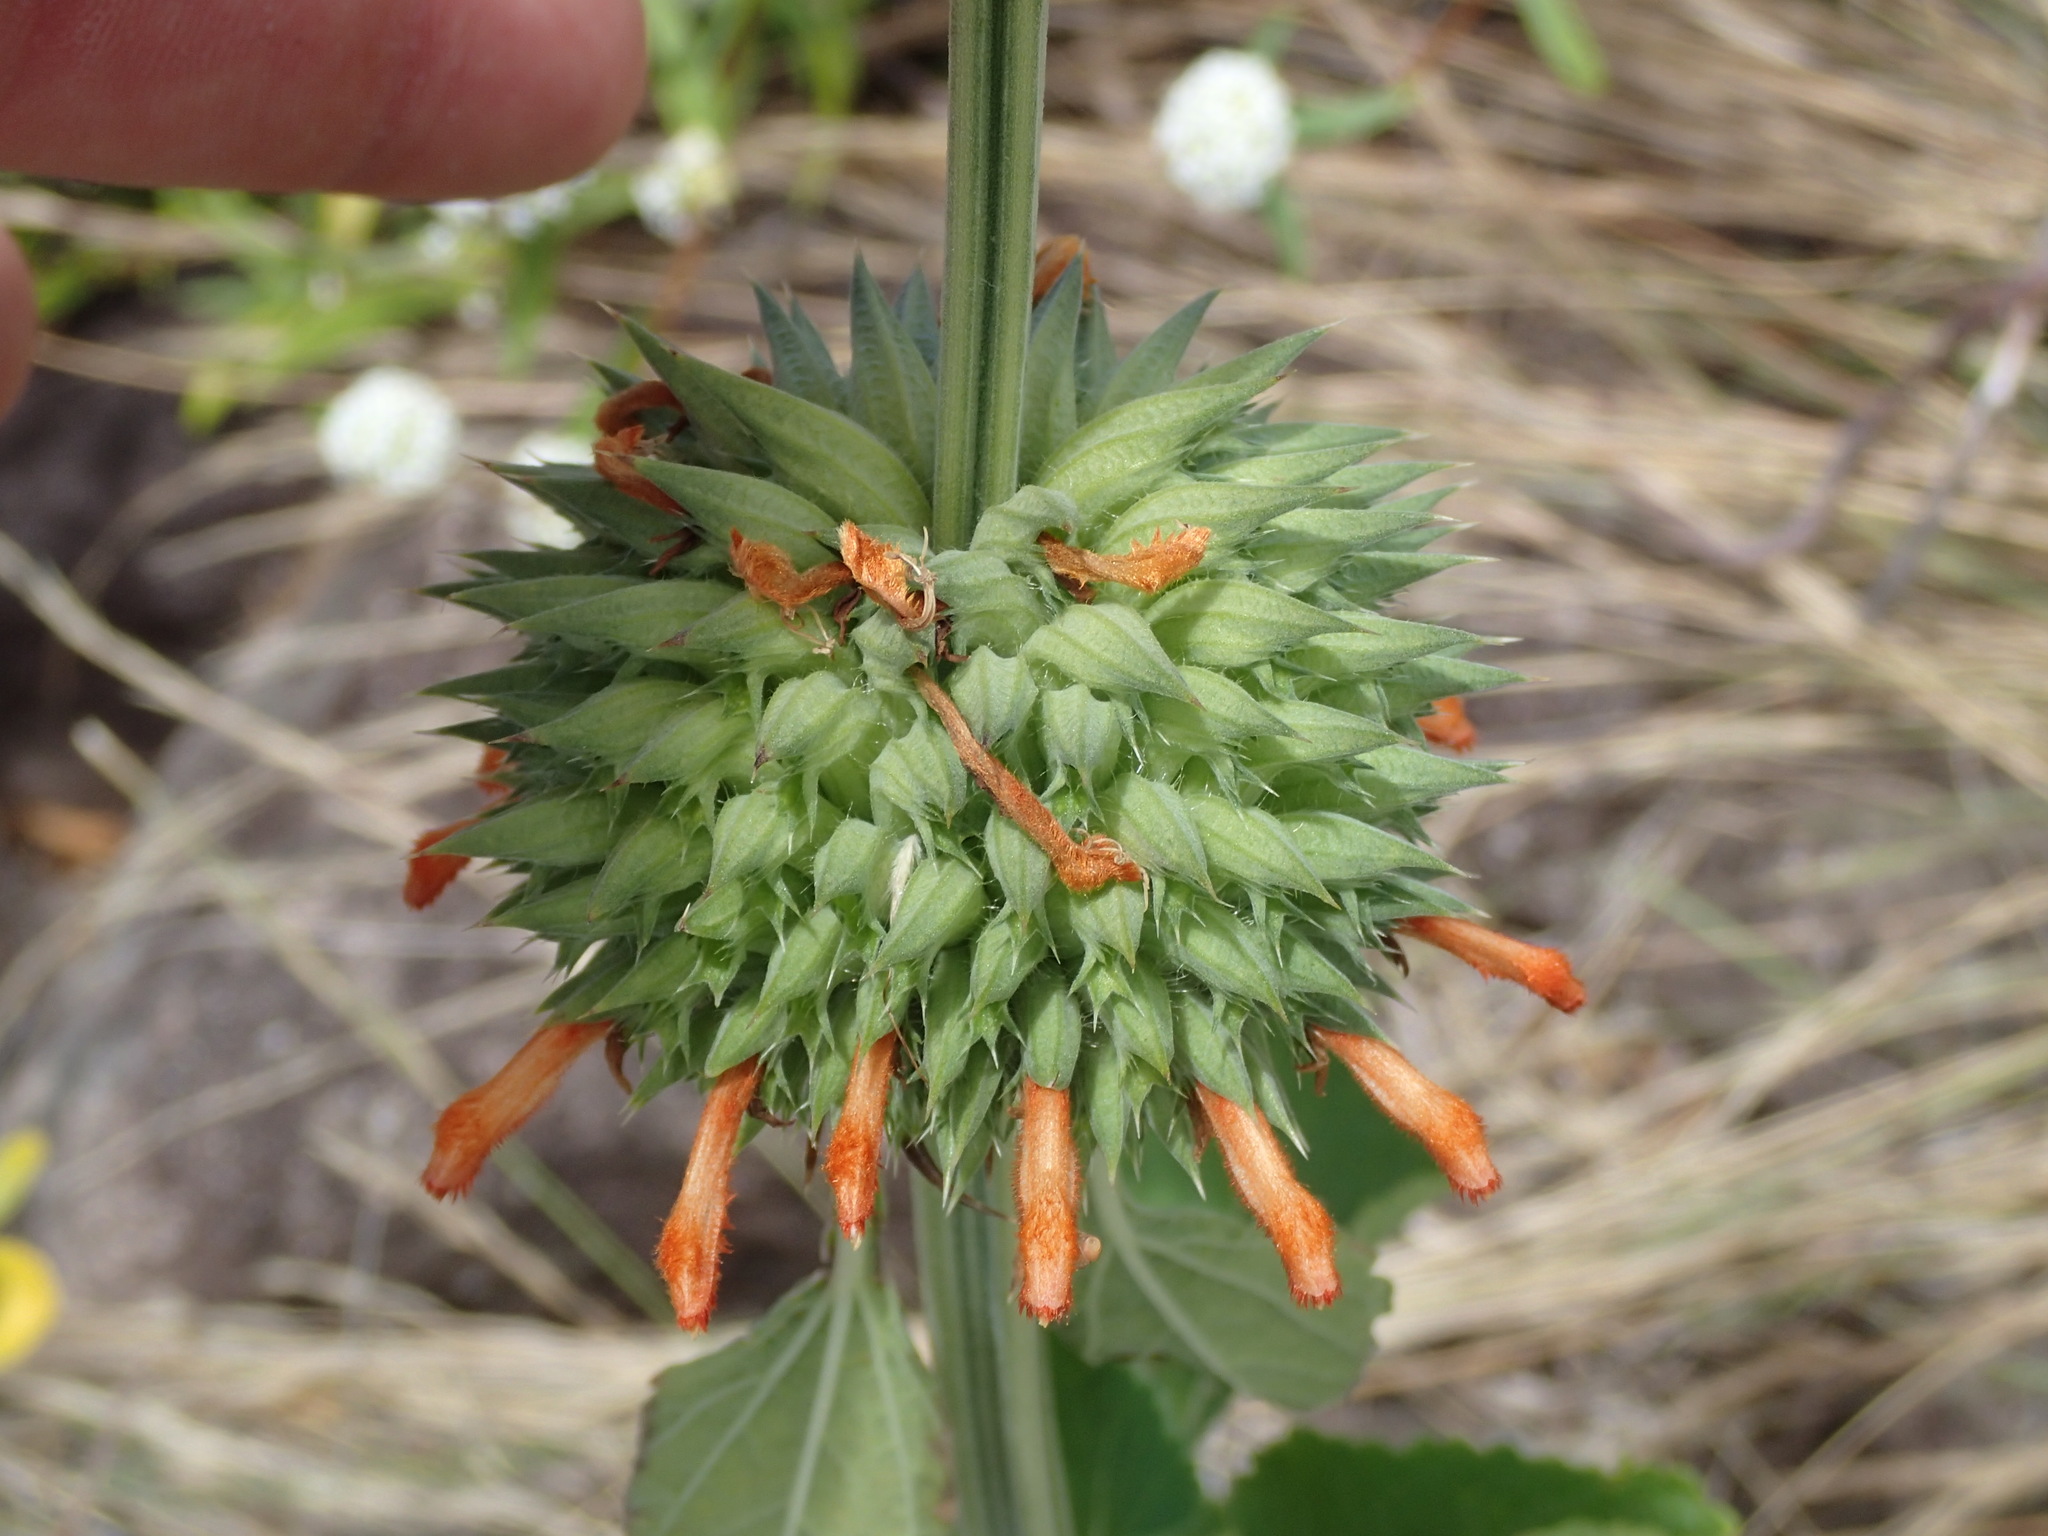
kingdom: Plantae
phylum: Tracheophyta
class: Magnoliopsida
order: Lamiales
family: Lamiaceae
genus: Leonotis
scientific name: Leonotis nepetifolia
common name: Christmas candlestick
